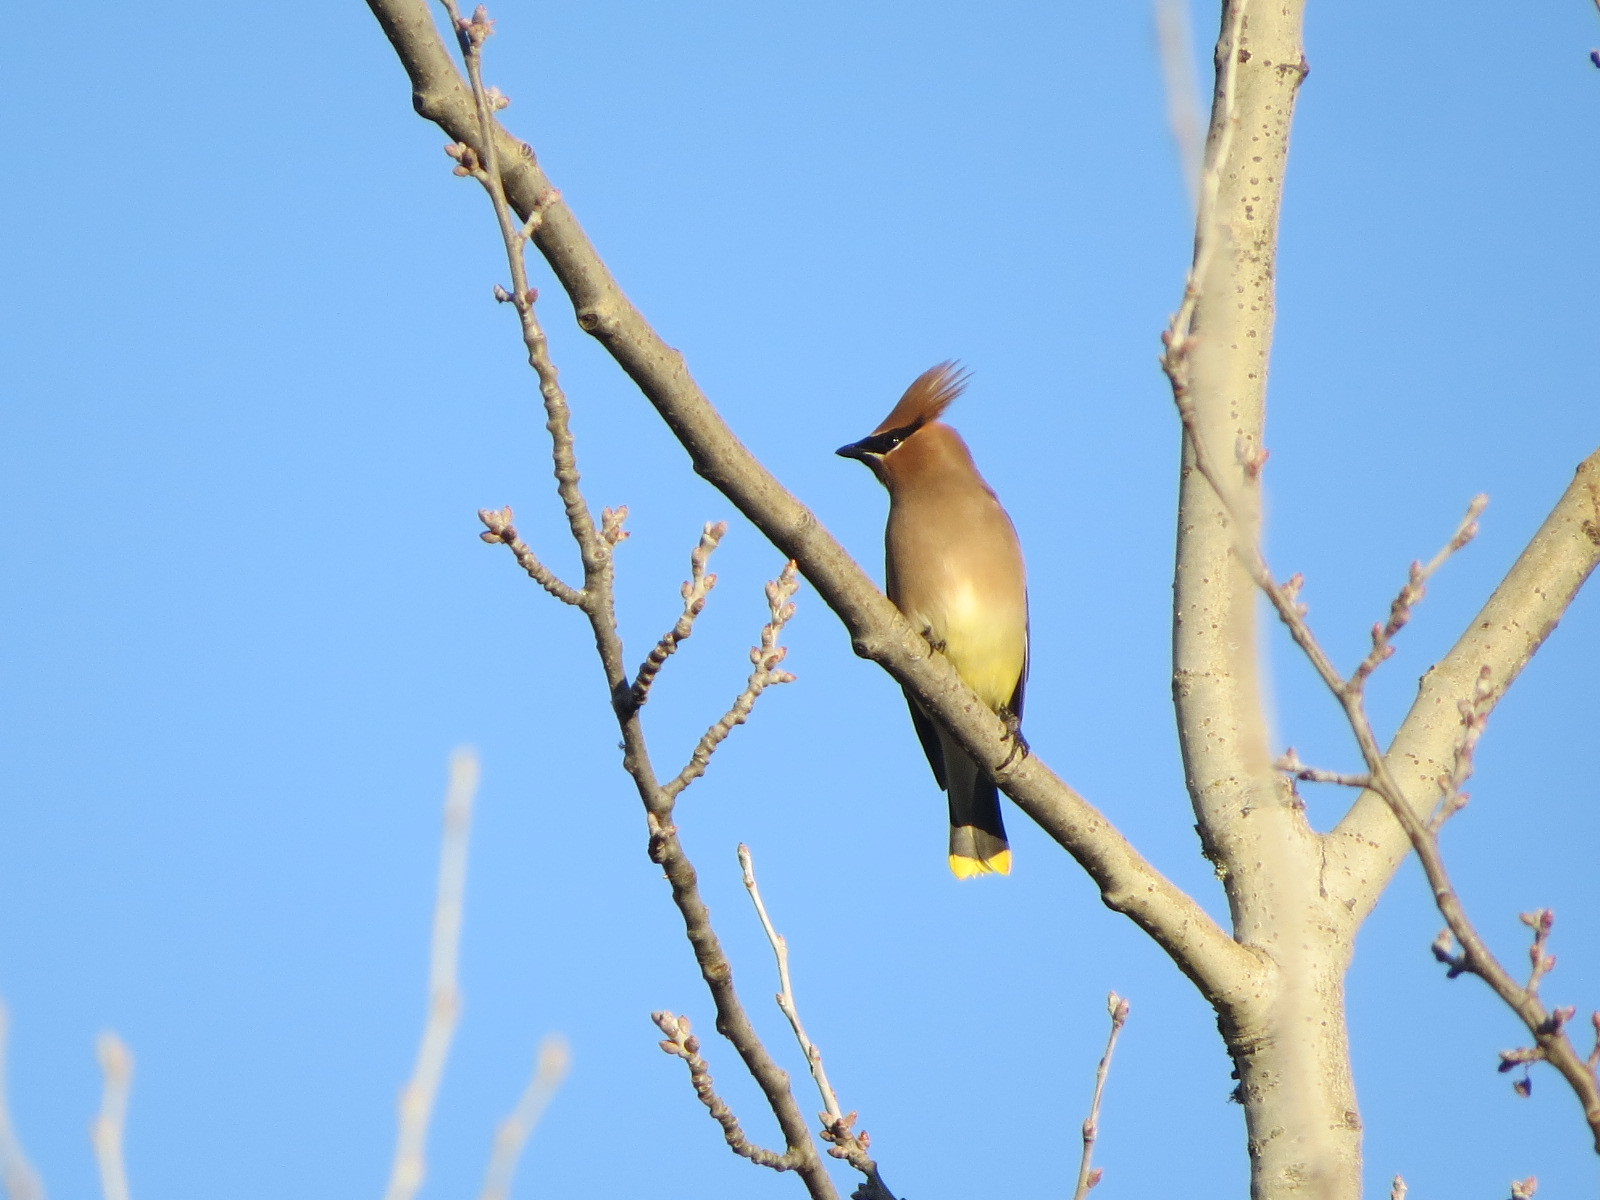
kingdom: Animalia
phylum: Chordata
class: Aves
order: Passeriformes
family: Bombycillidae
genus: Bombycilla
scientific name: Bombycilla cedrorum
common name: Cedar waxwing
